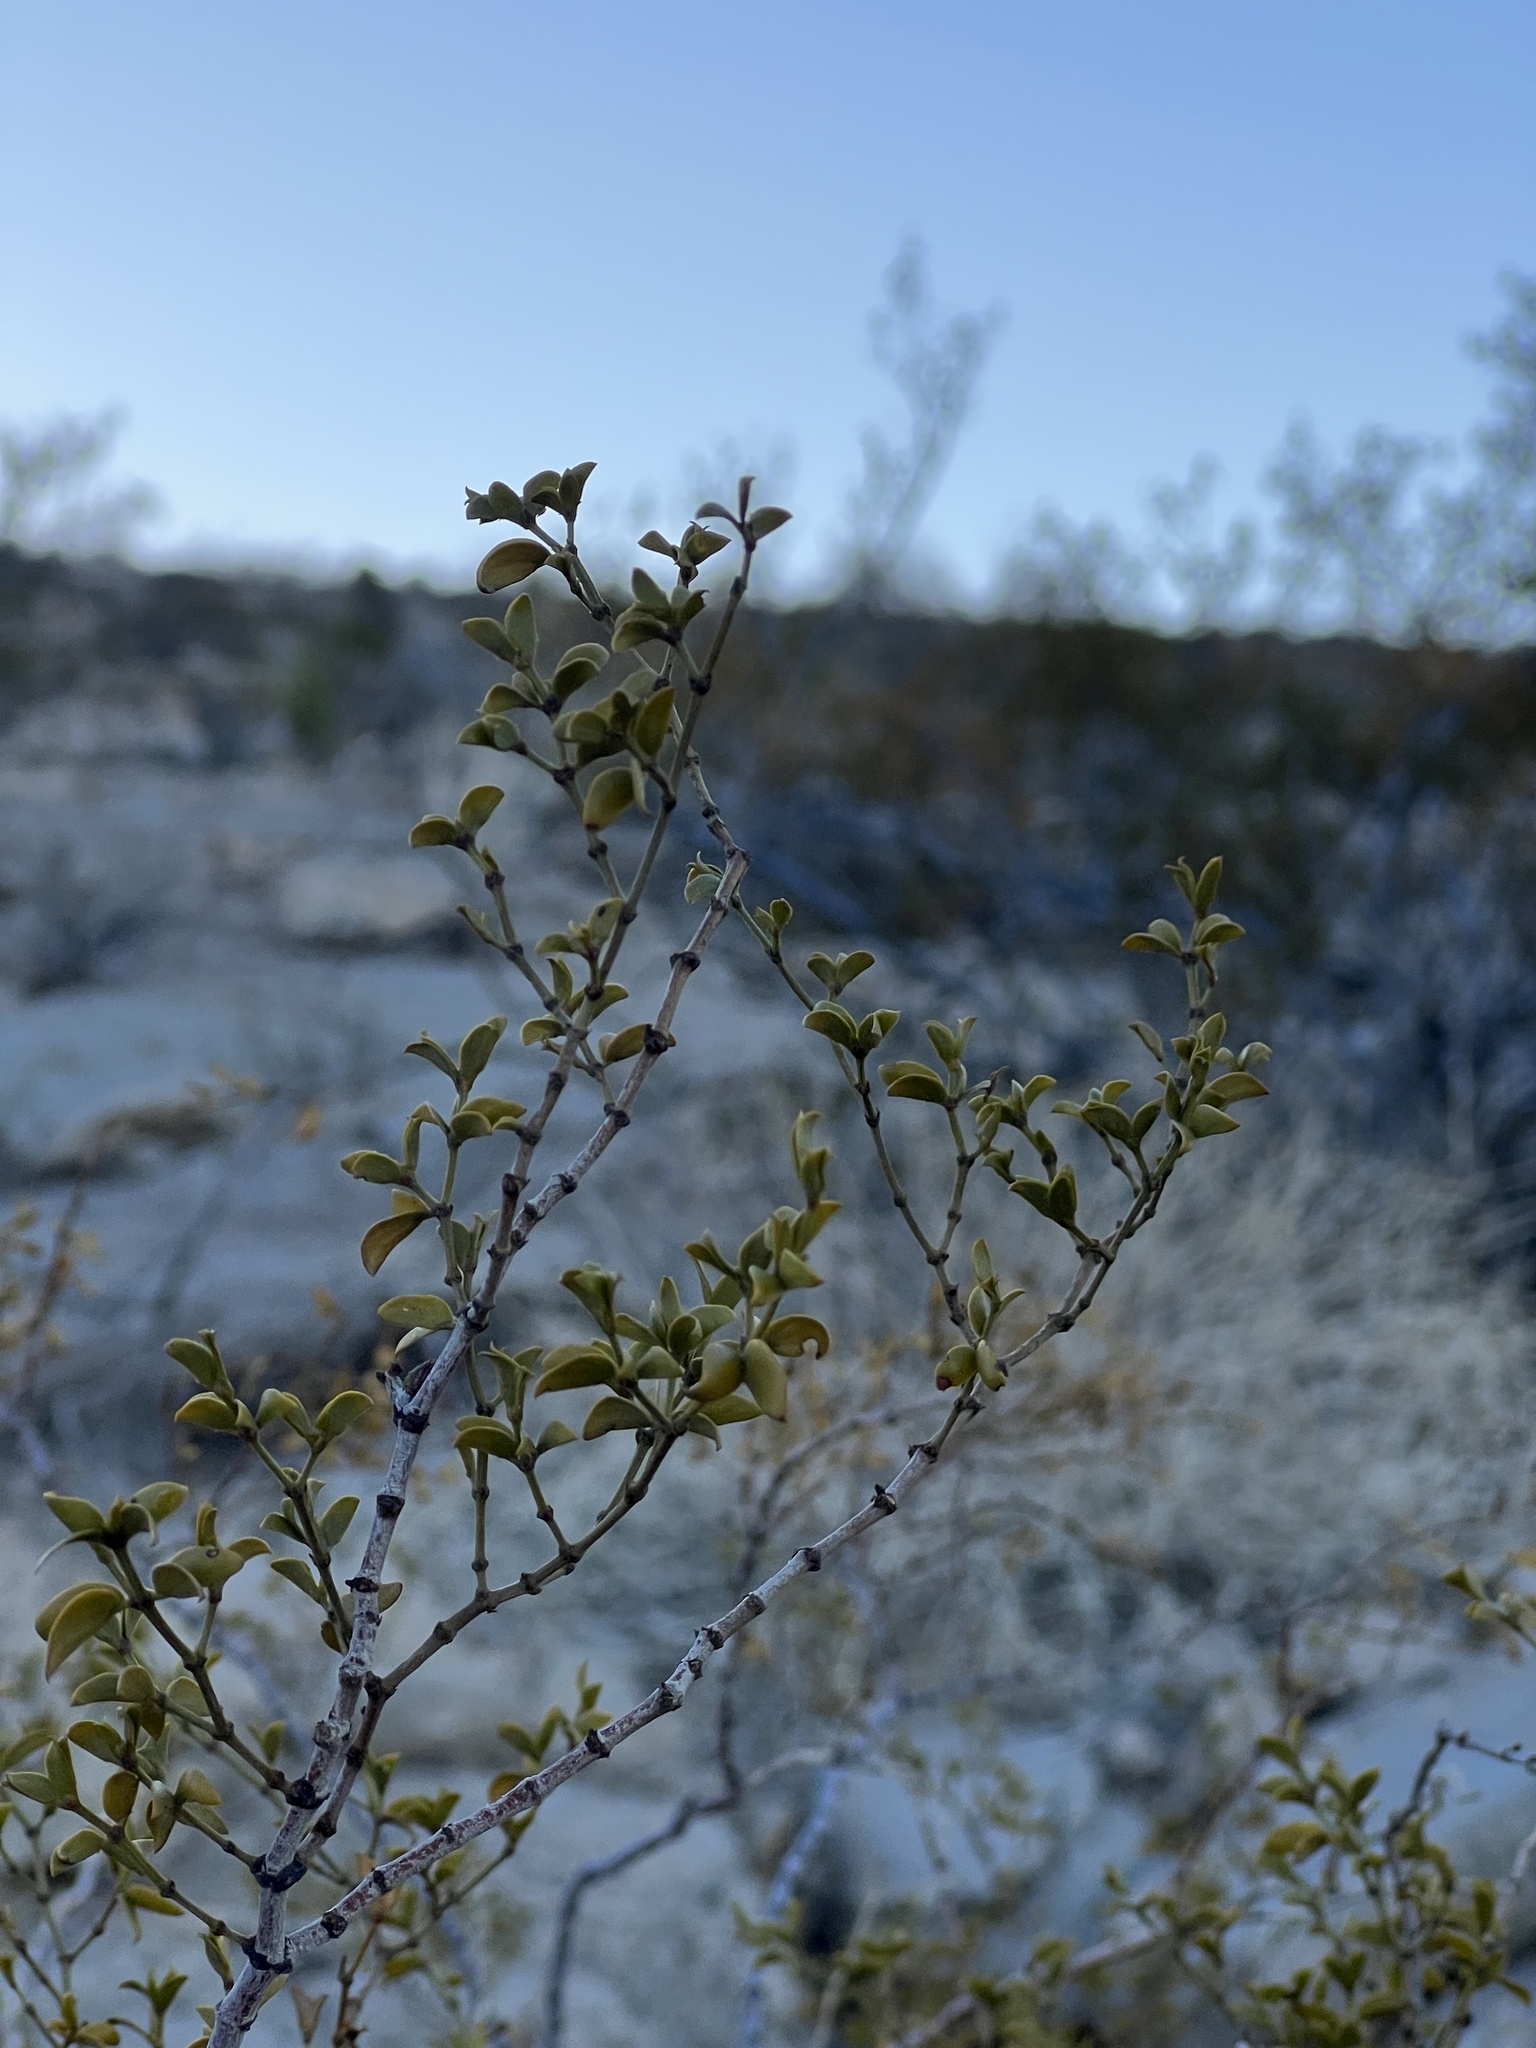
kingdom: Plantae
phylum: Tracheophyta
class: Magnoliopsida
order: Zygophyllales
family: Zygophyllaceae
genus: Larrea
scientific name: Larrea tridentata
